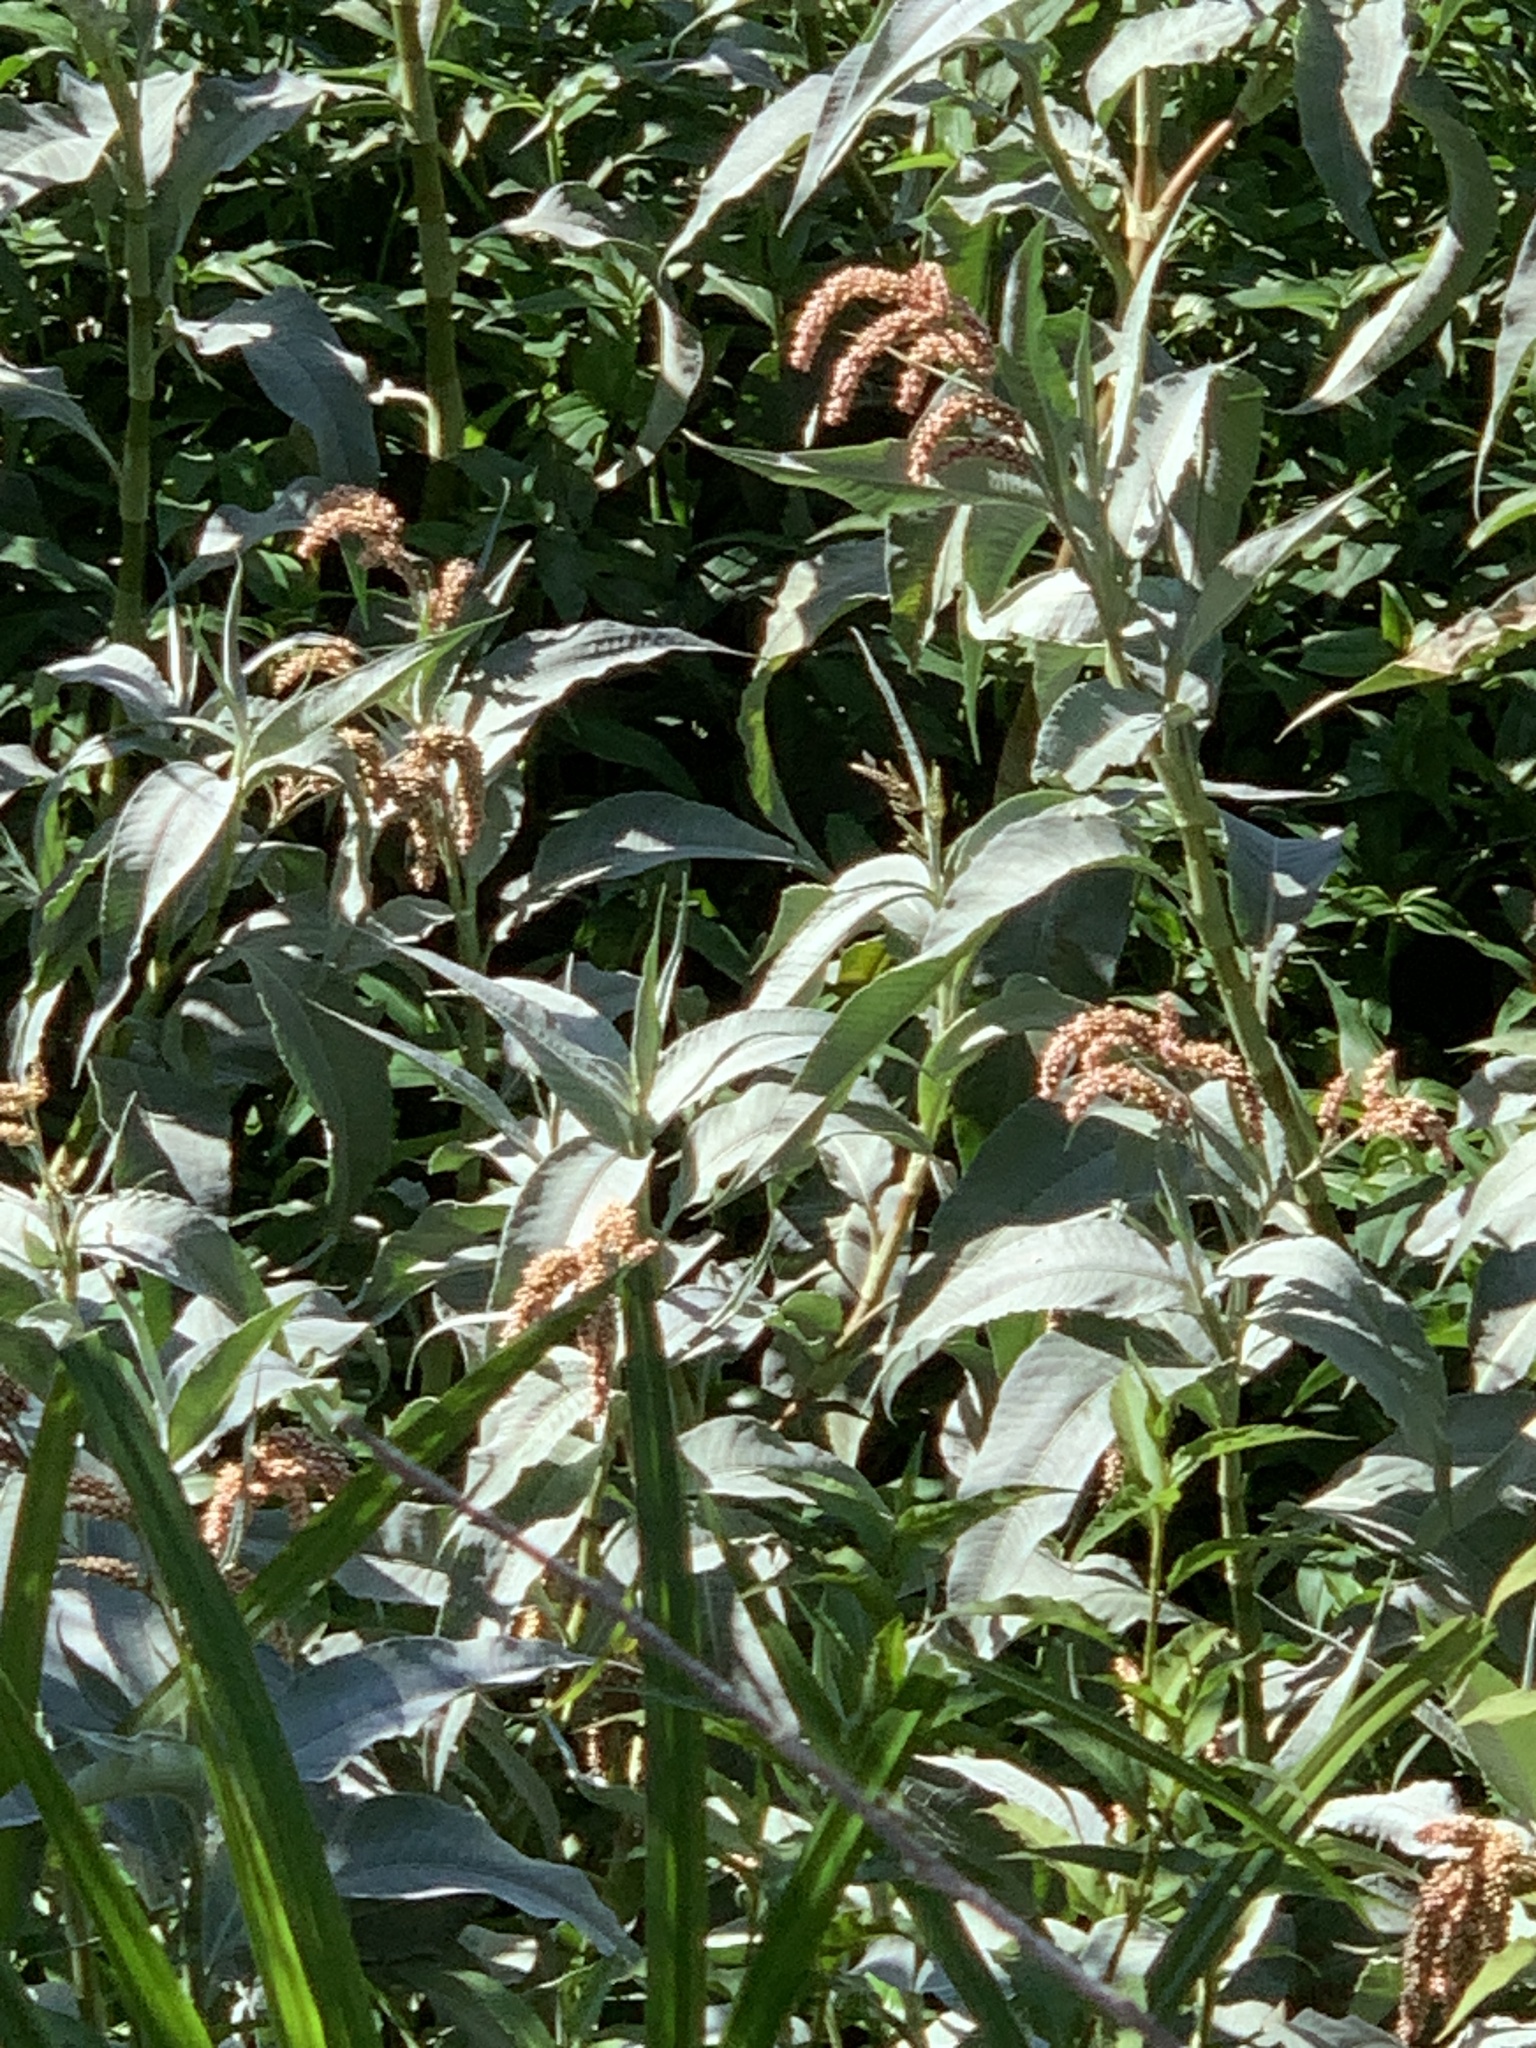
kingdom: Plantae
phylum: Tracheophyta
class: Magnoliopsida
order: Caryophyllales
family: Polygonaceae
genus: Persicaria
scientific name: Persicaria senegalensis
